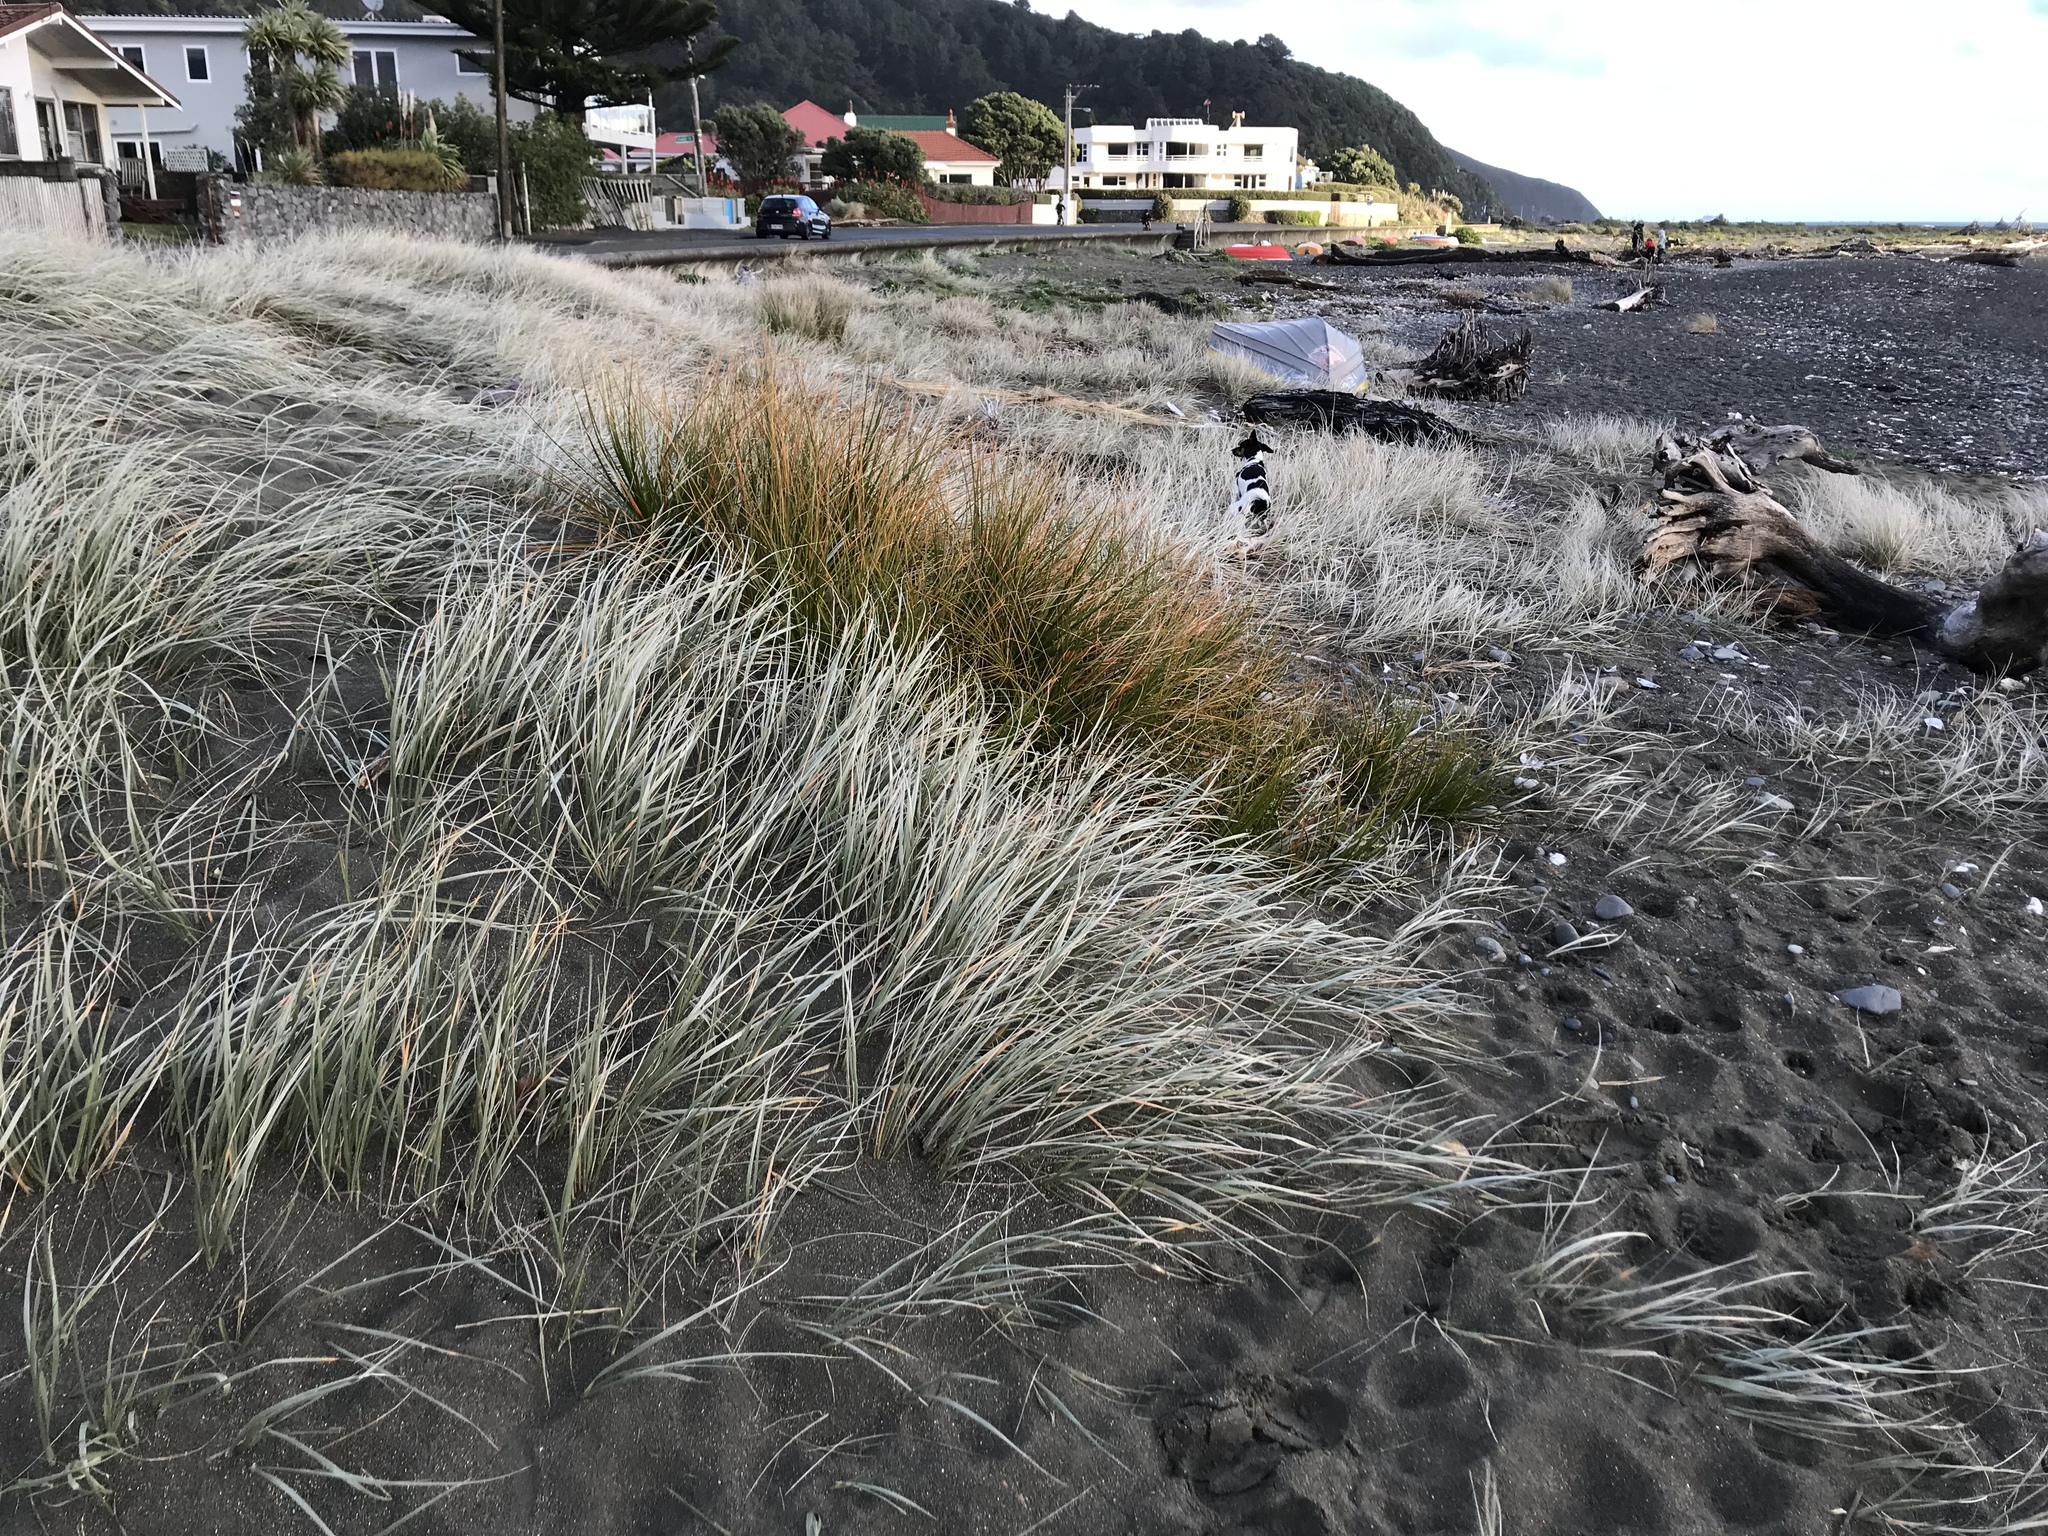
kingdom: Plantae
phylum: Tracheophyta
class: Liliopsida
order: Poales
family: Cyperaceae
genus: Ficinia
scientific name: Ficinia spiralis
